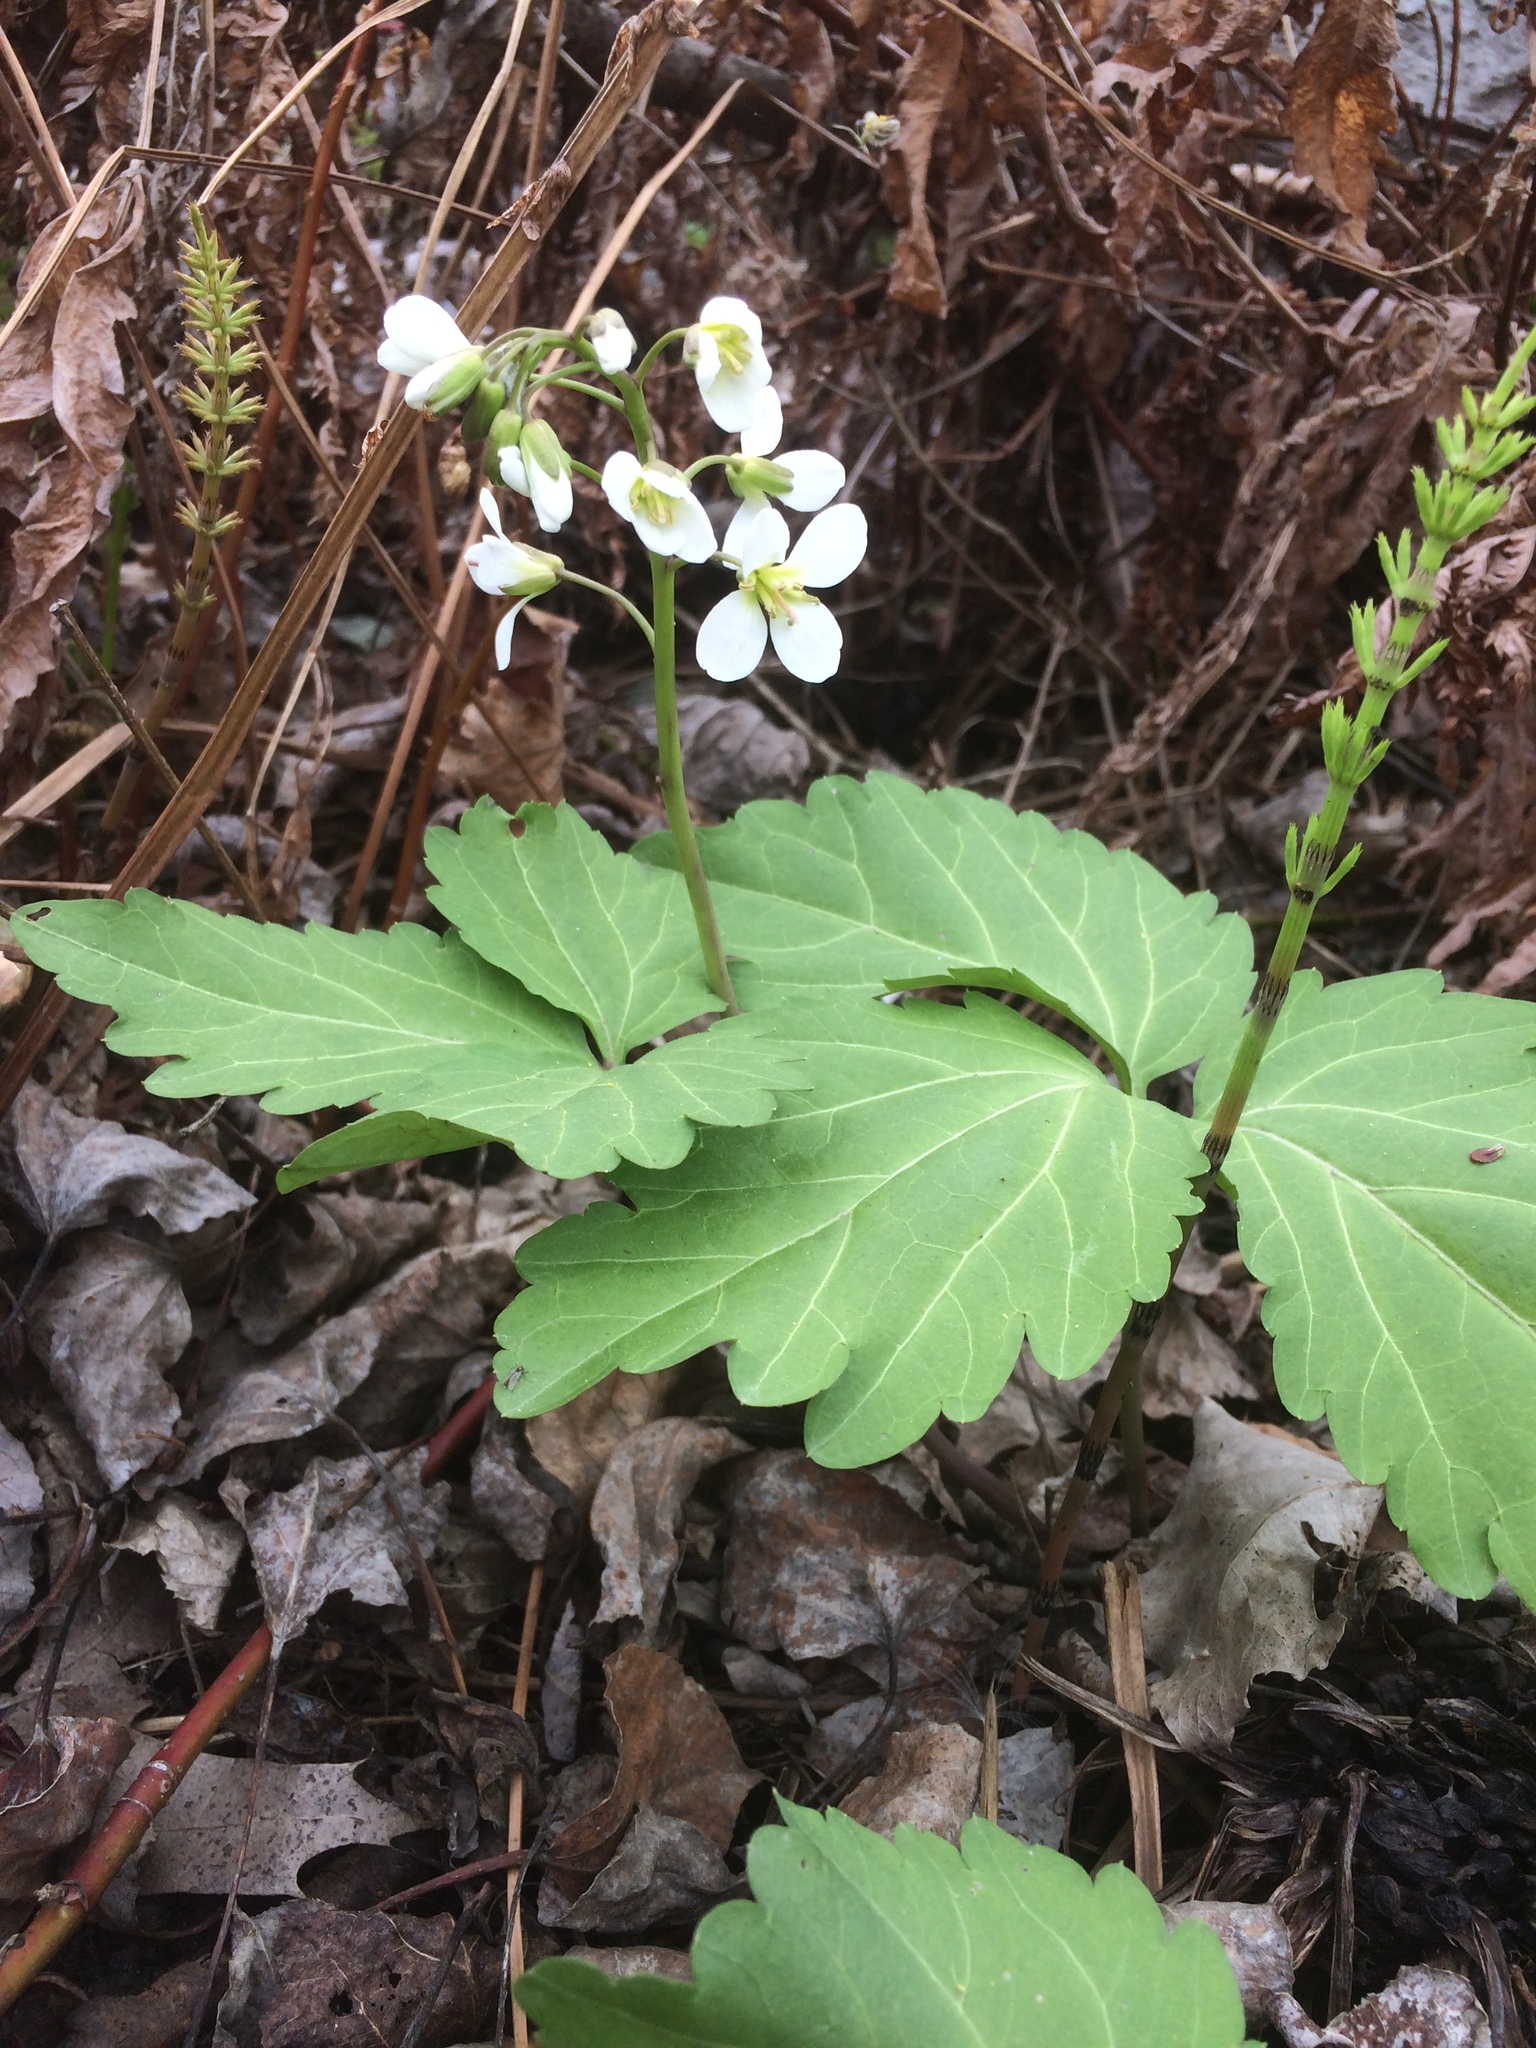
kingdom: Plantae
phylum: Tracheophyta
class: Magnoliopsida
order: Brassicales
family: Brassicaceae
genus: Cardamine
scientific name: Cardamine diphylla
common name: Broad-leaved toothwort
